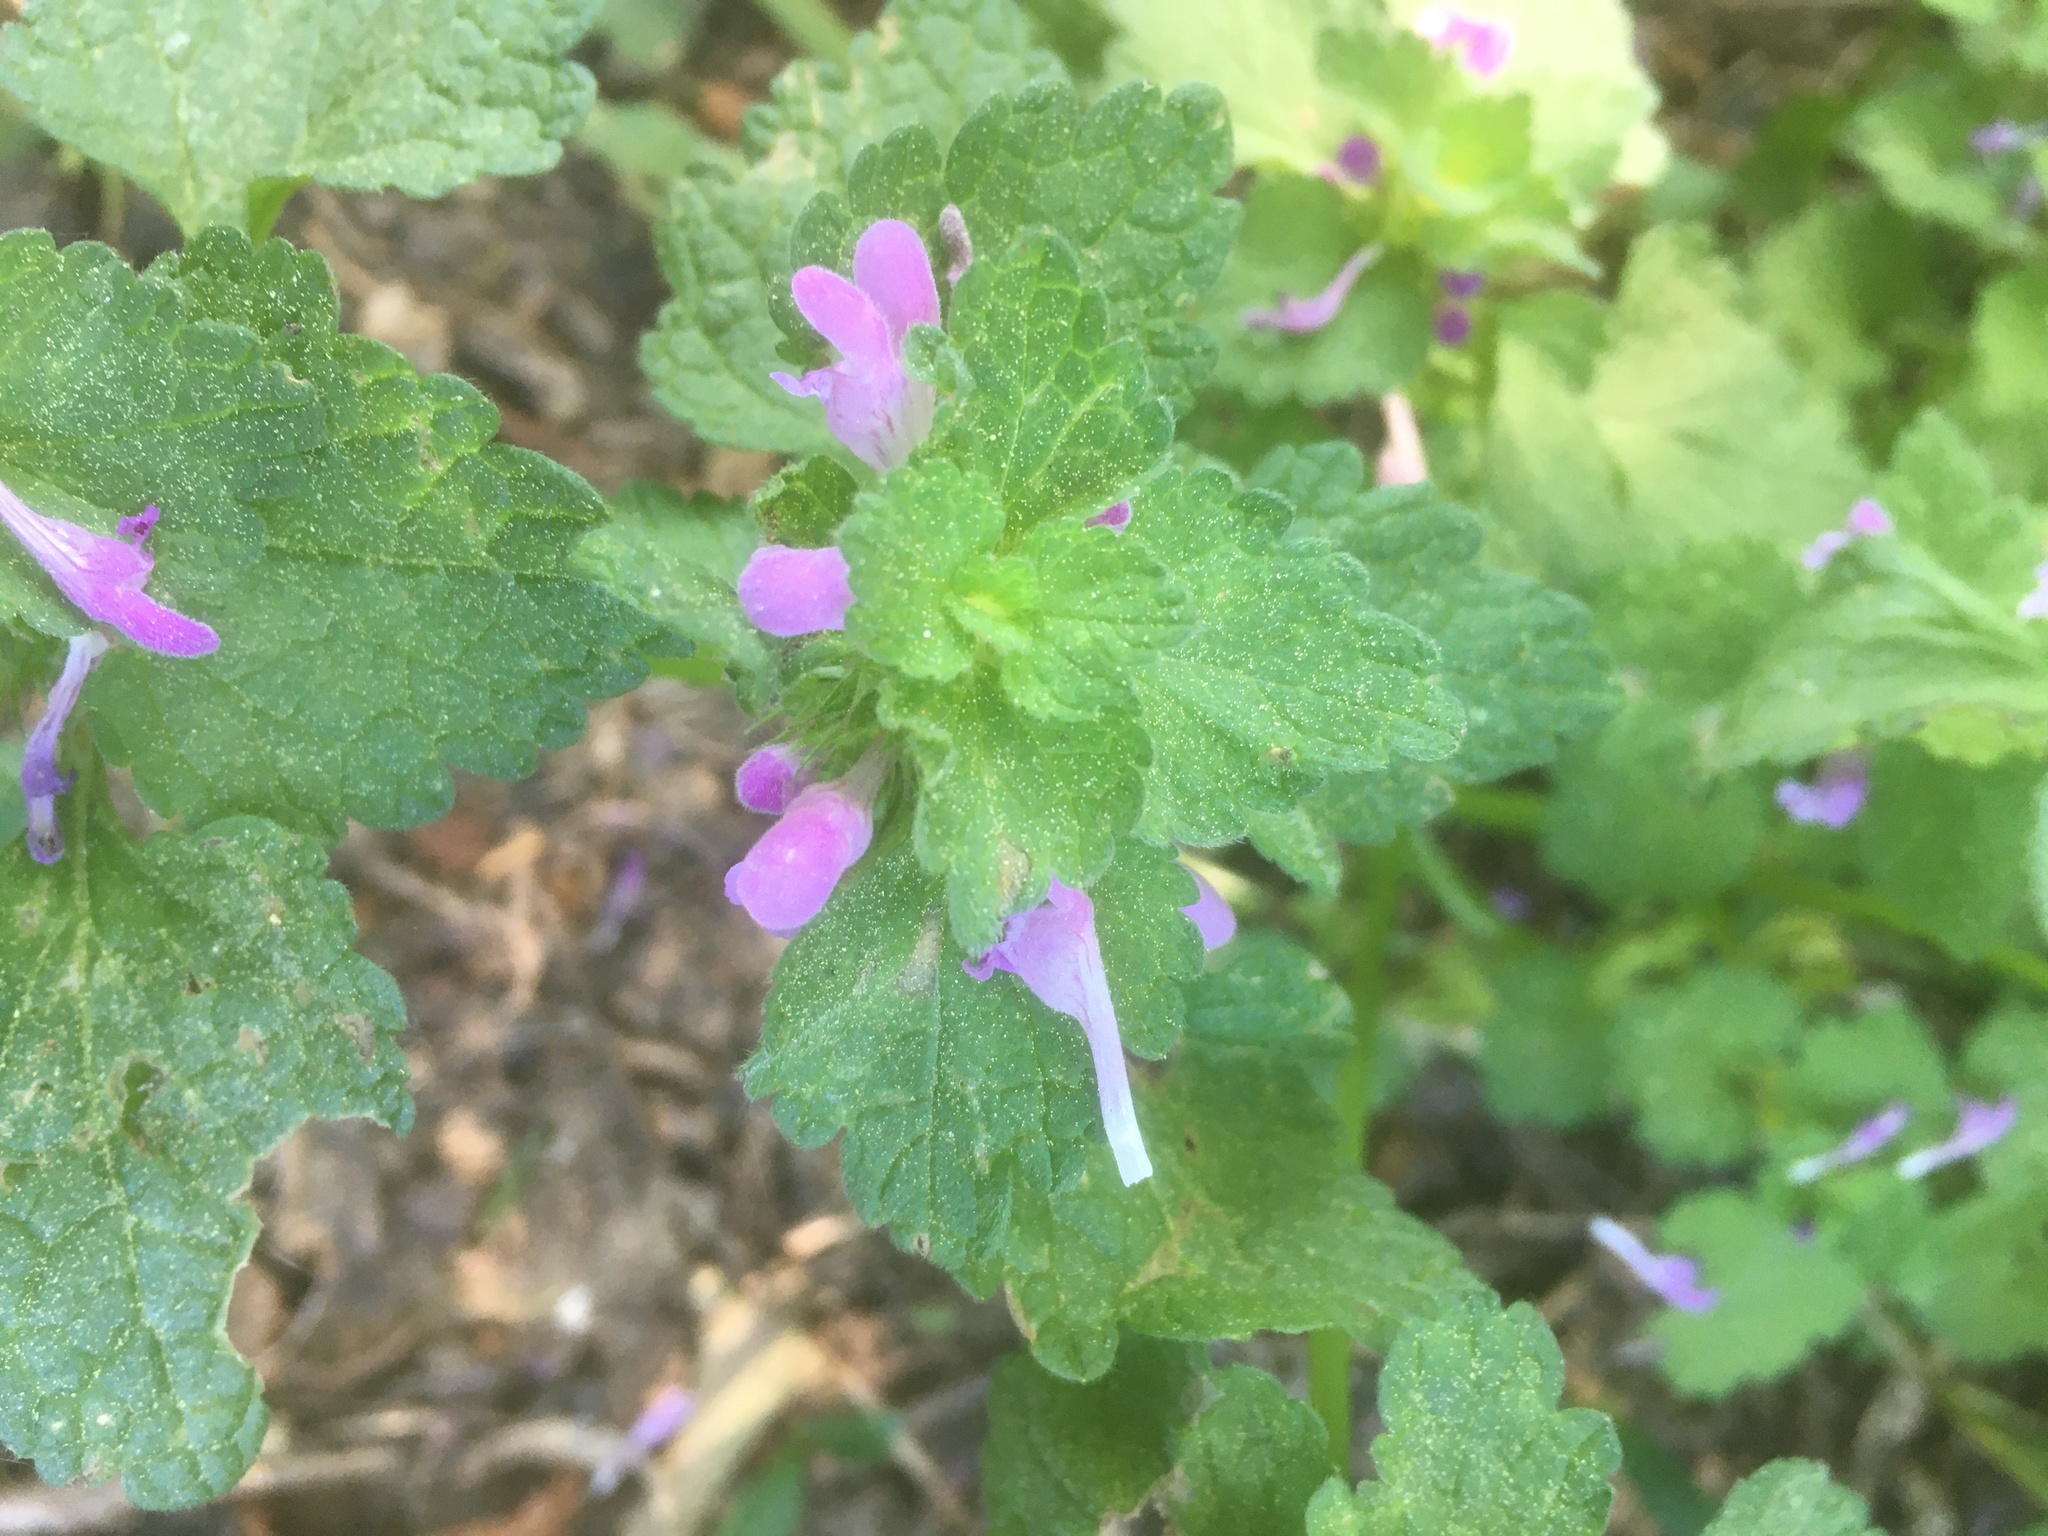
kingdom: Plantae
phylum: Tracheophyta
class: Magnoliopsida
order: Lamiales
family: Lamiaceae
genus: Lamium
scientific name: Lamium purpureum
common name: Red dead-nettle
